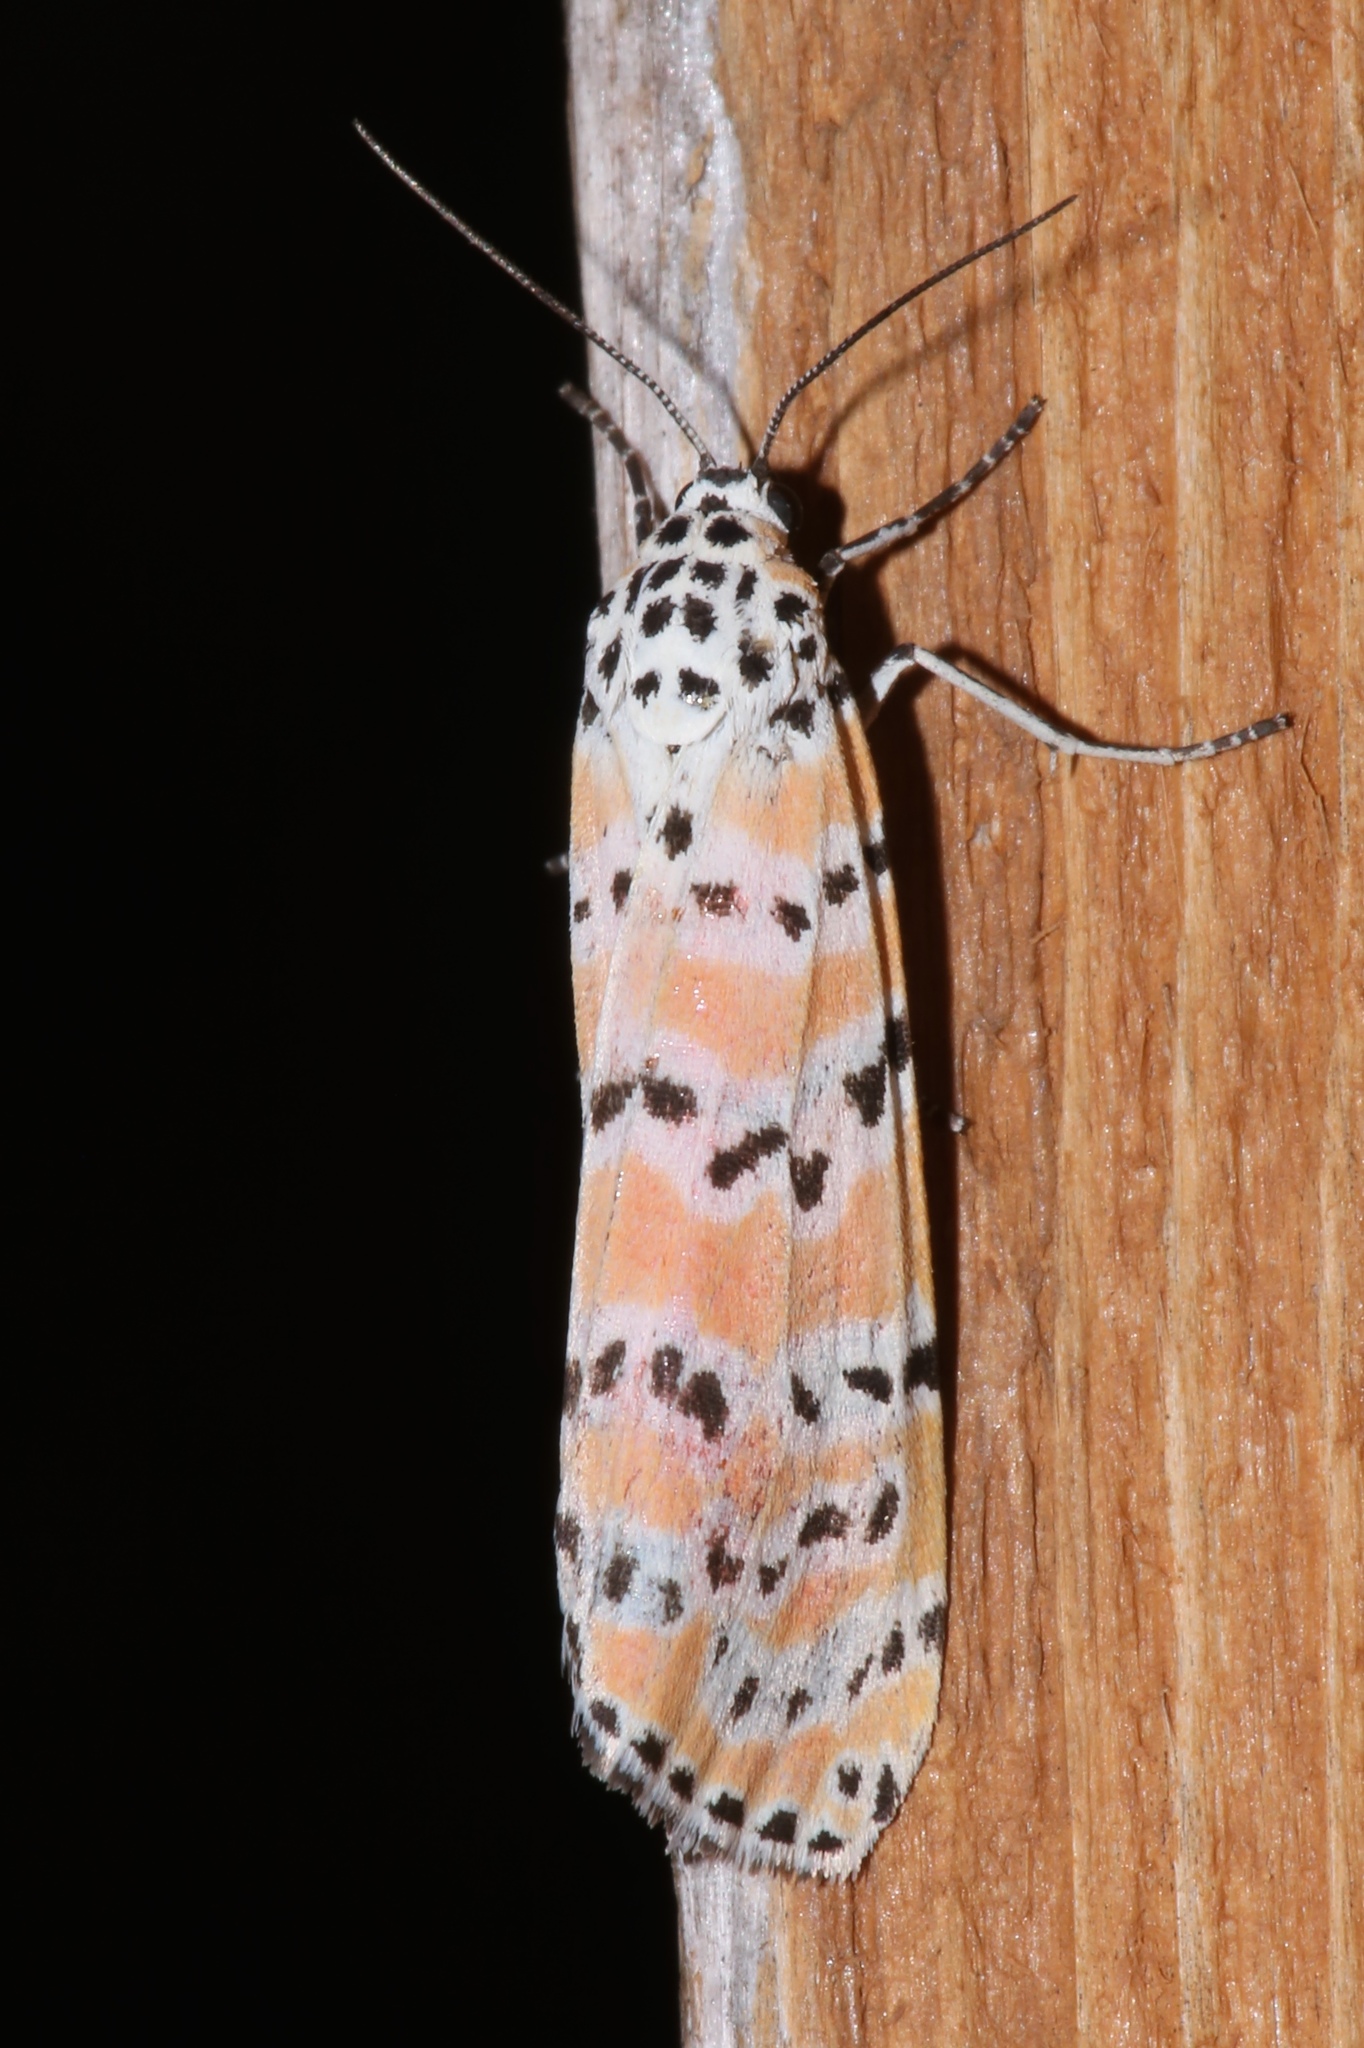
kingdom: Animalia
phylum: Arthropoda
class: Insecta
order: Lepidoptera
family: Erebidae
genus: Utetheisa
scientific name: Utetheisa ornatrix
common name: Beautiful utetheisa
